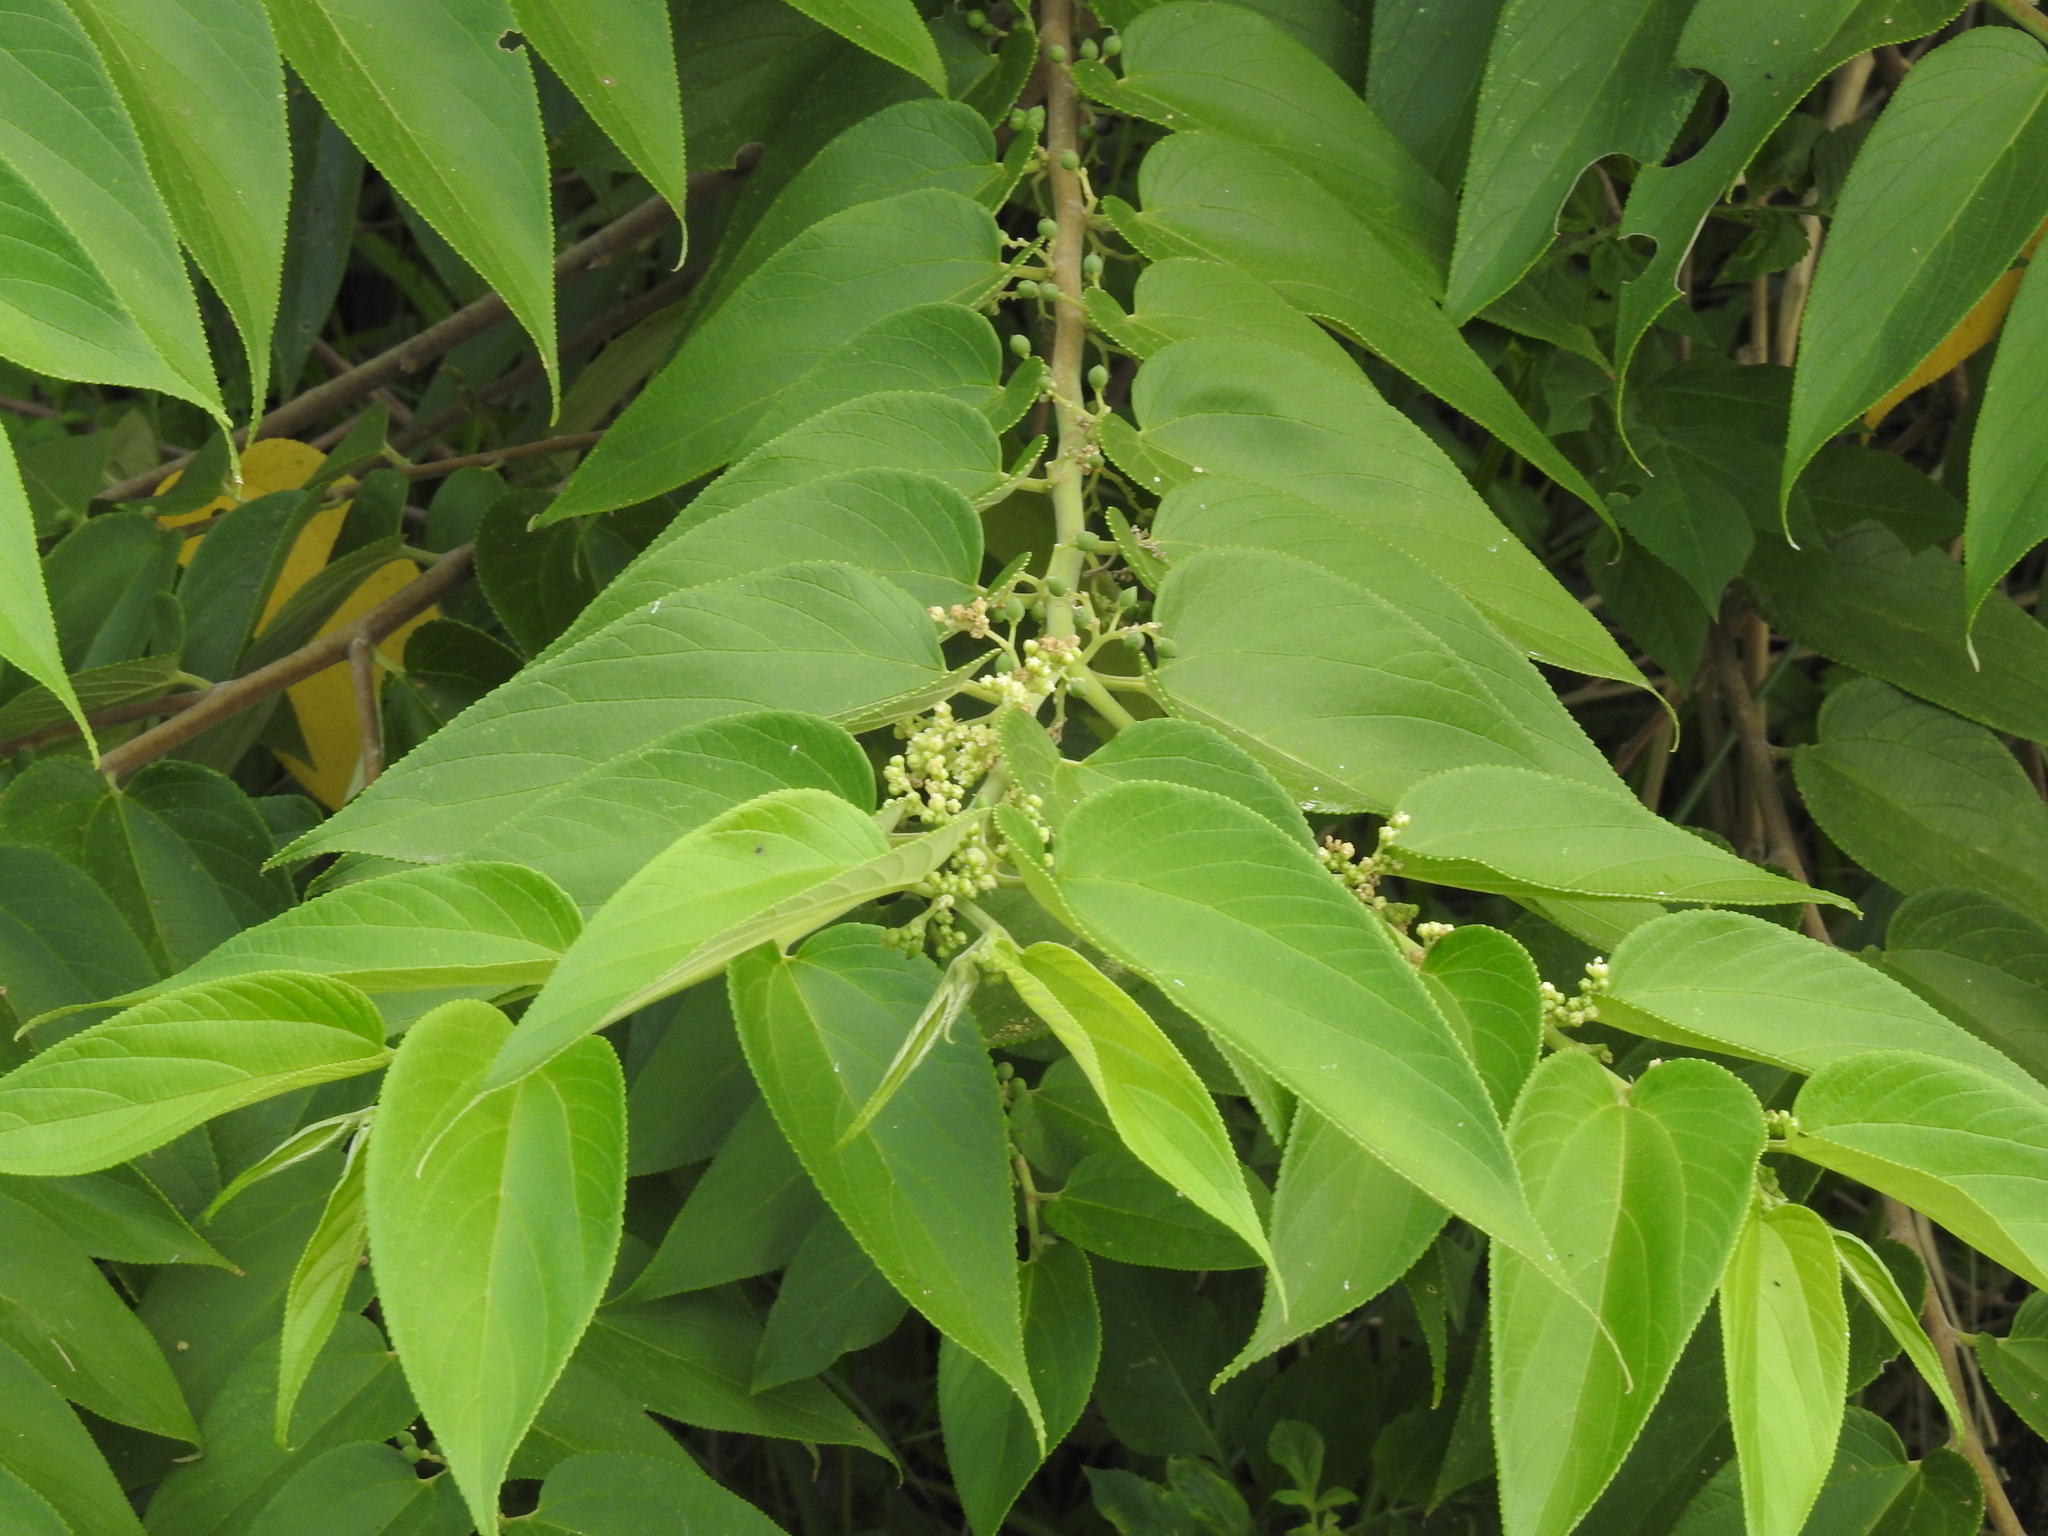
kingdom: Plantae
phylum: Tracheophyta
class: Magnoliopsida
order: Rosales
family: Cannabaceae
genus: Trema
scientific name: Trema orientale
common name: Indian charcoal tree
